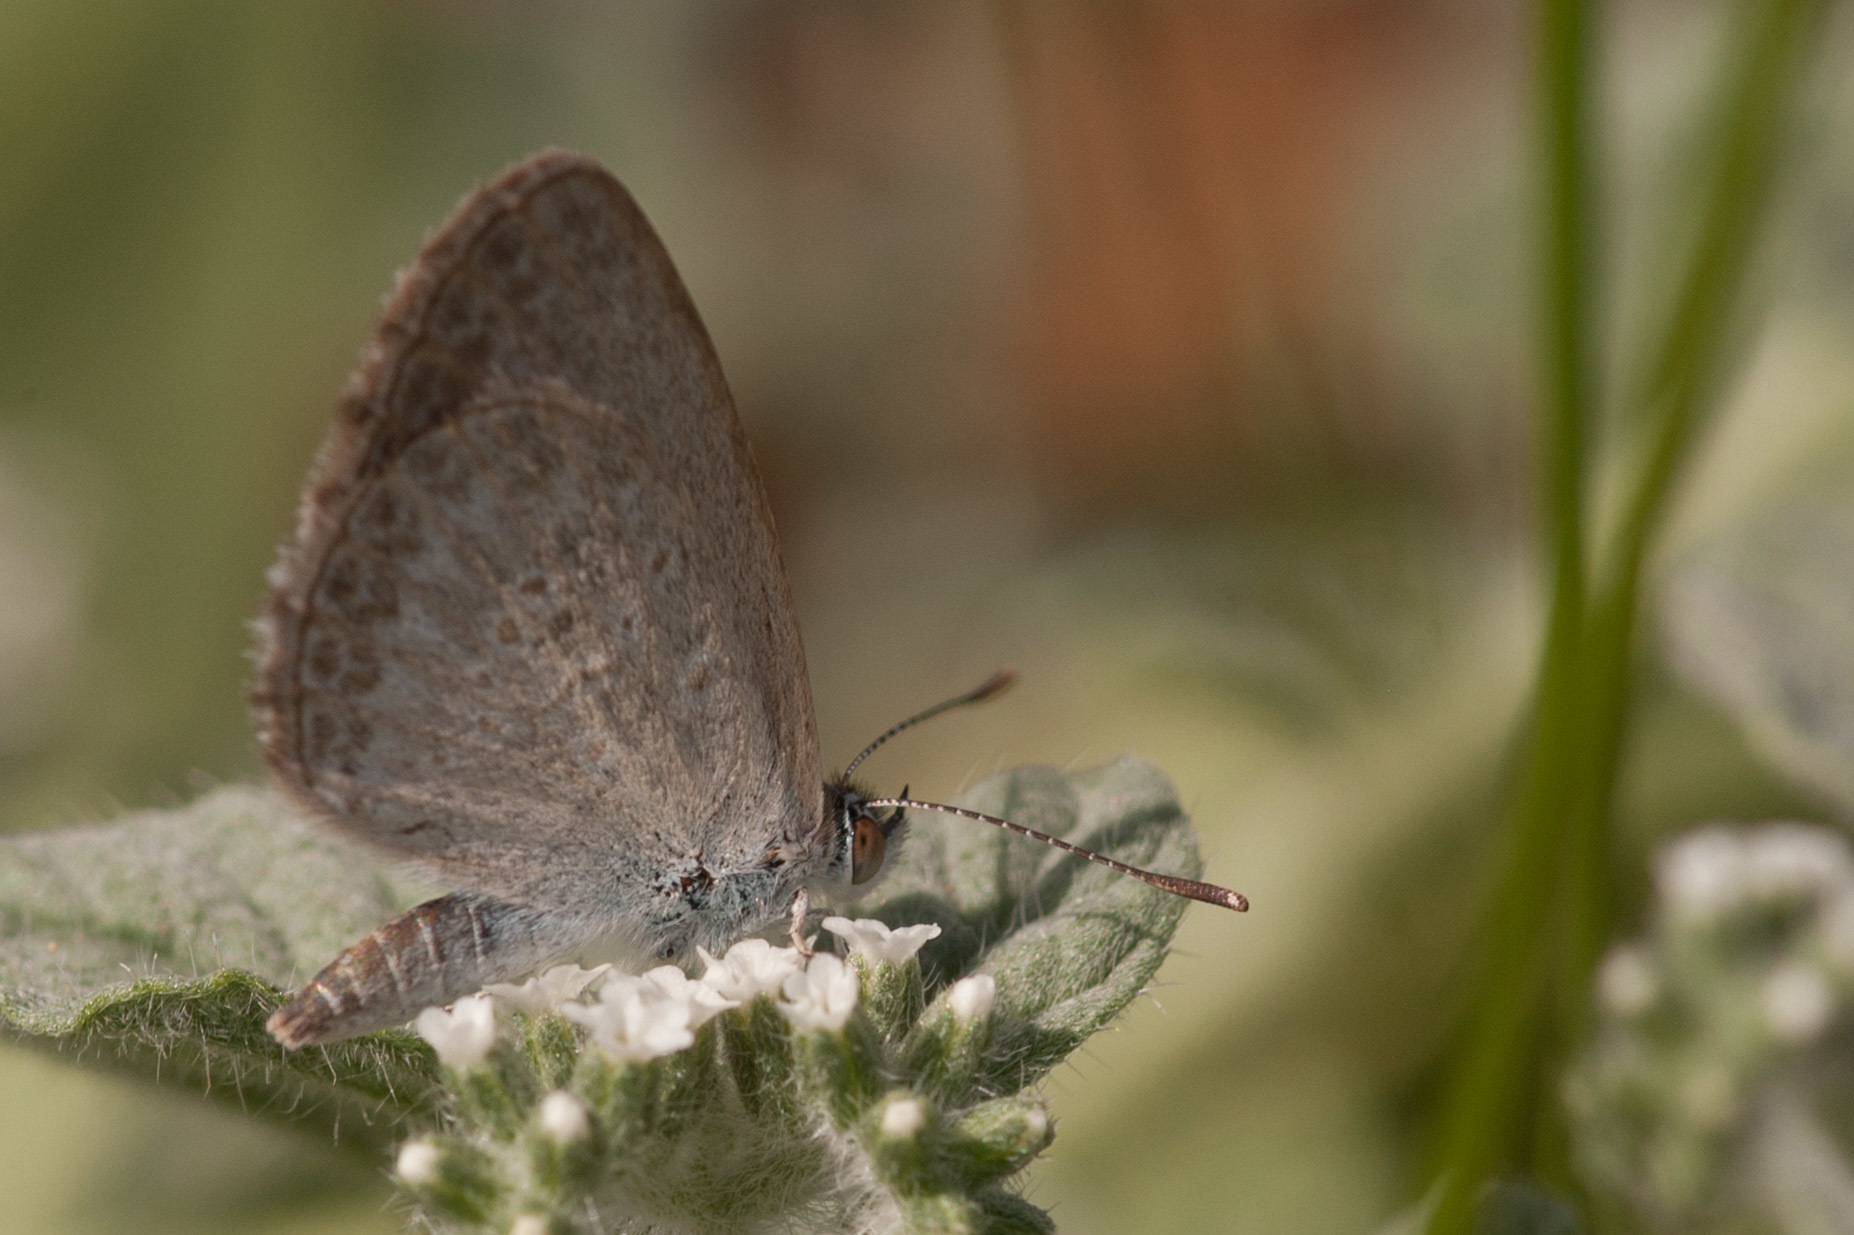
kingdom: Animalia
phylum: Arthropoda
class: Insecta
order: Lepidoptera
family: Lycaenidae
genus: Zizina
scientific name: Zizina labradus
